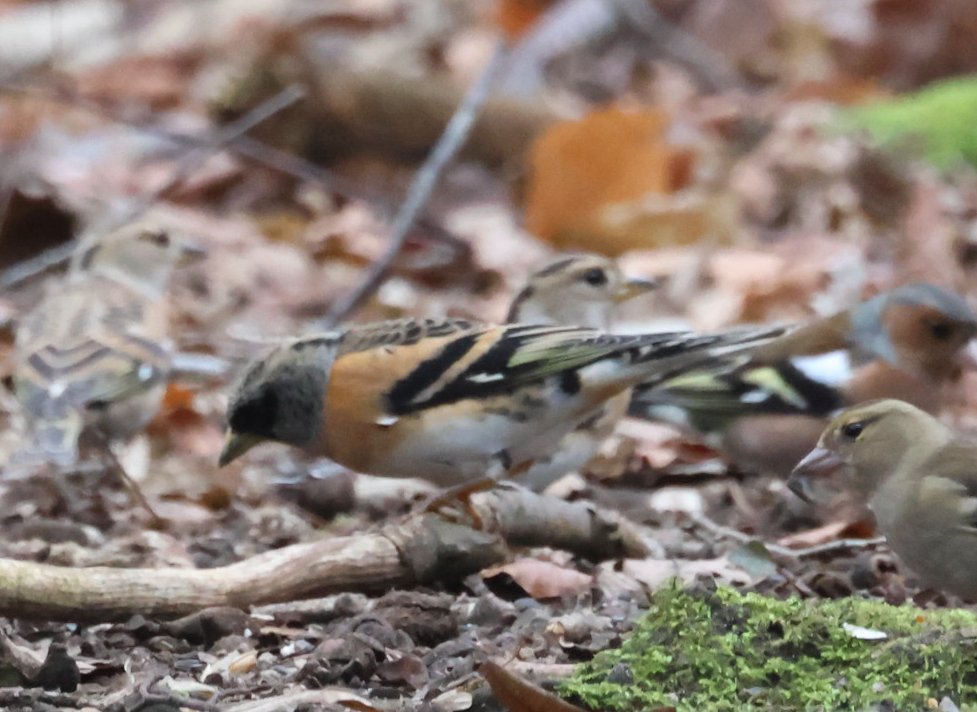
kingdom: Animalia
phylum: Chordata
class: Aves
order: Passeriformes
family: Fringillidae
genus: Fringilla
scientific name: Fringilla montifringilla
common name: Brambling
